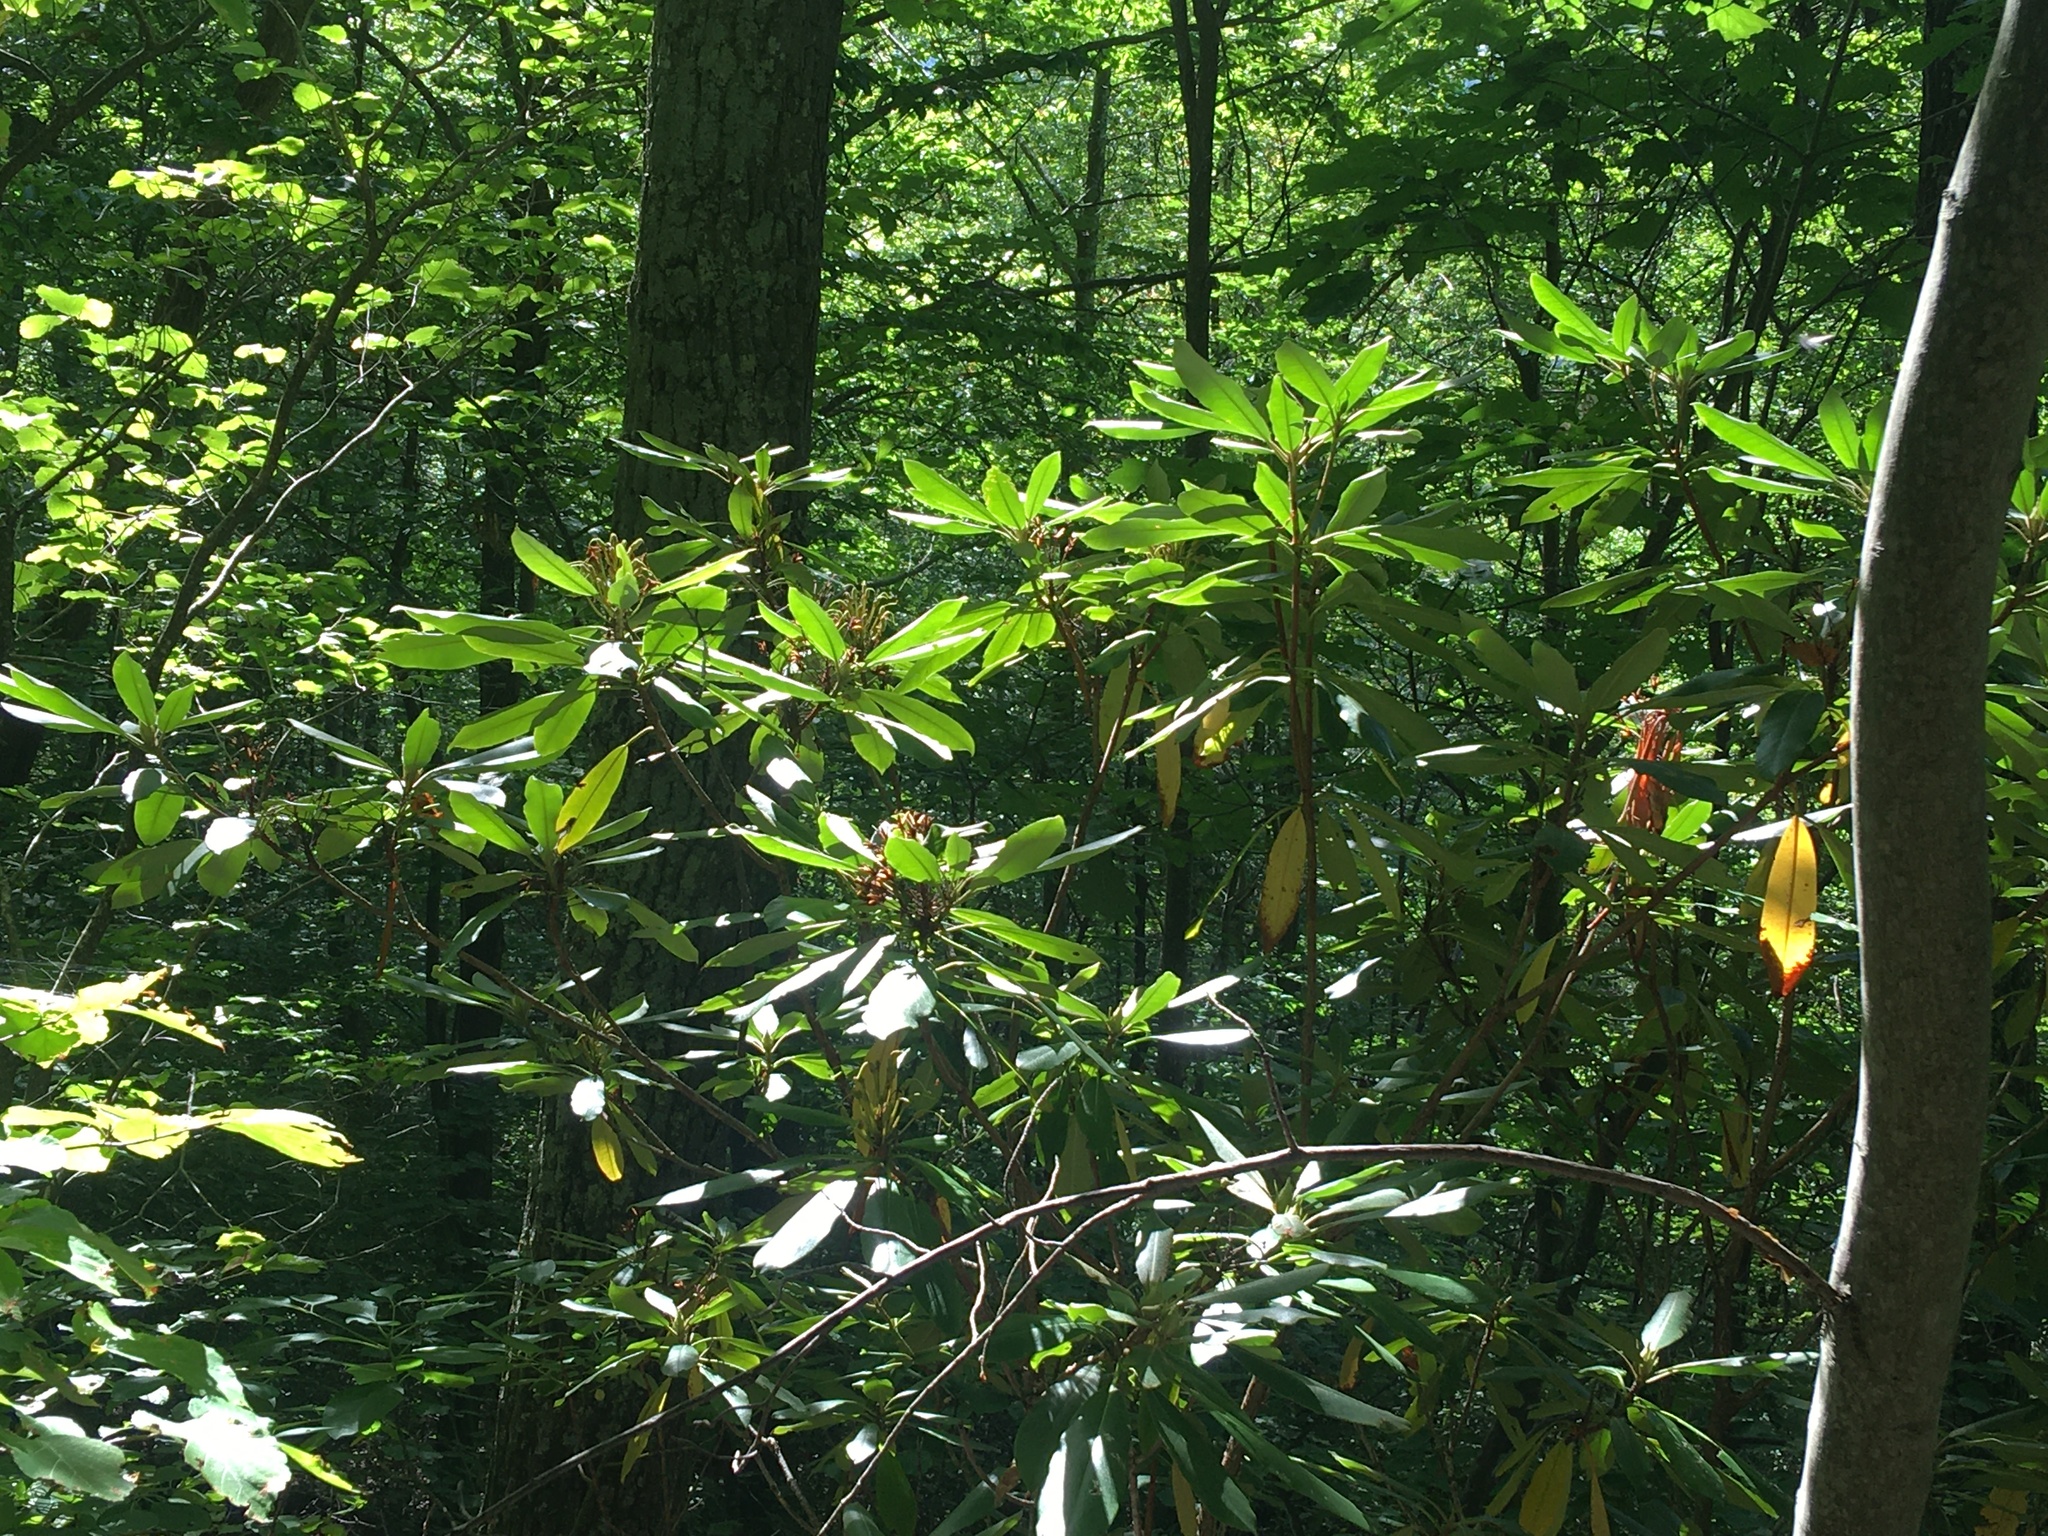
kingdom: Plantae
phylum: Tracheophyta
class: Magnoliopsida
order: Ericales
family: Ericaceae
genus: Rhododendron
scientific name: Rhododendron maximum
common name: Great rhododendron
